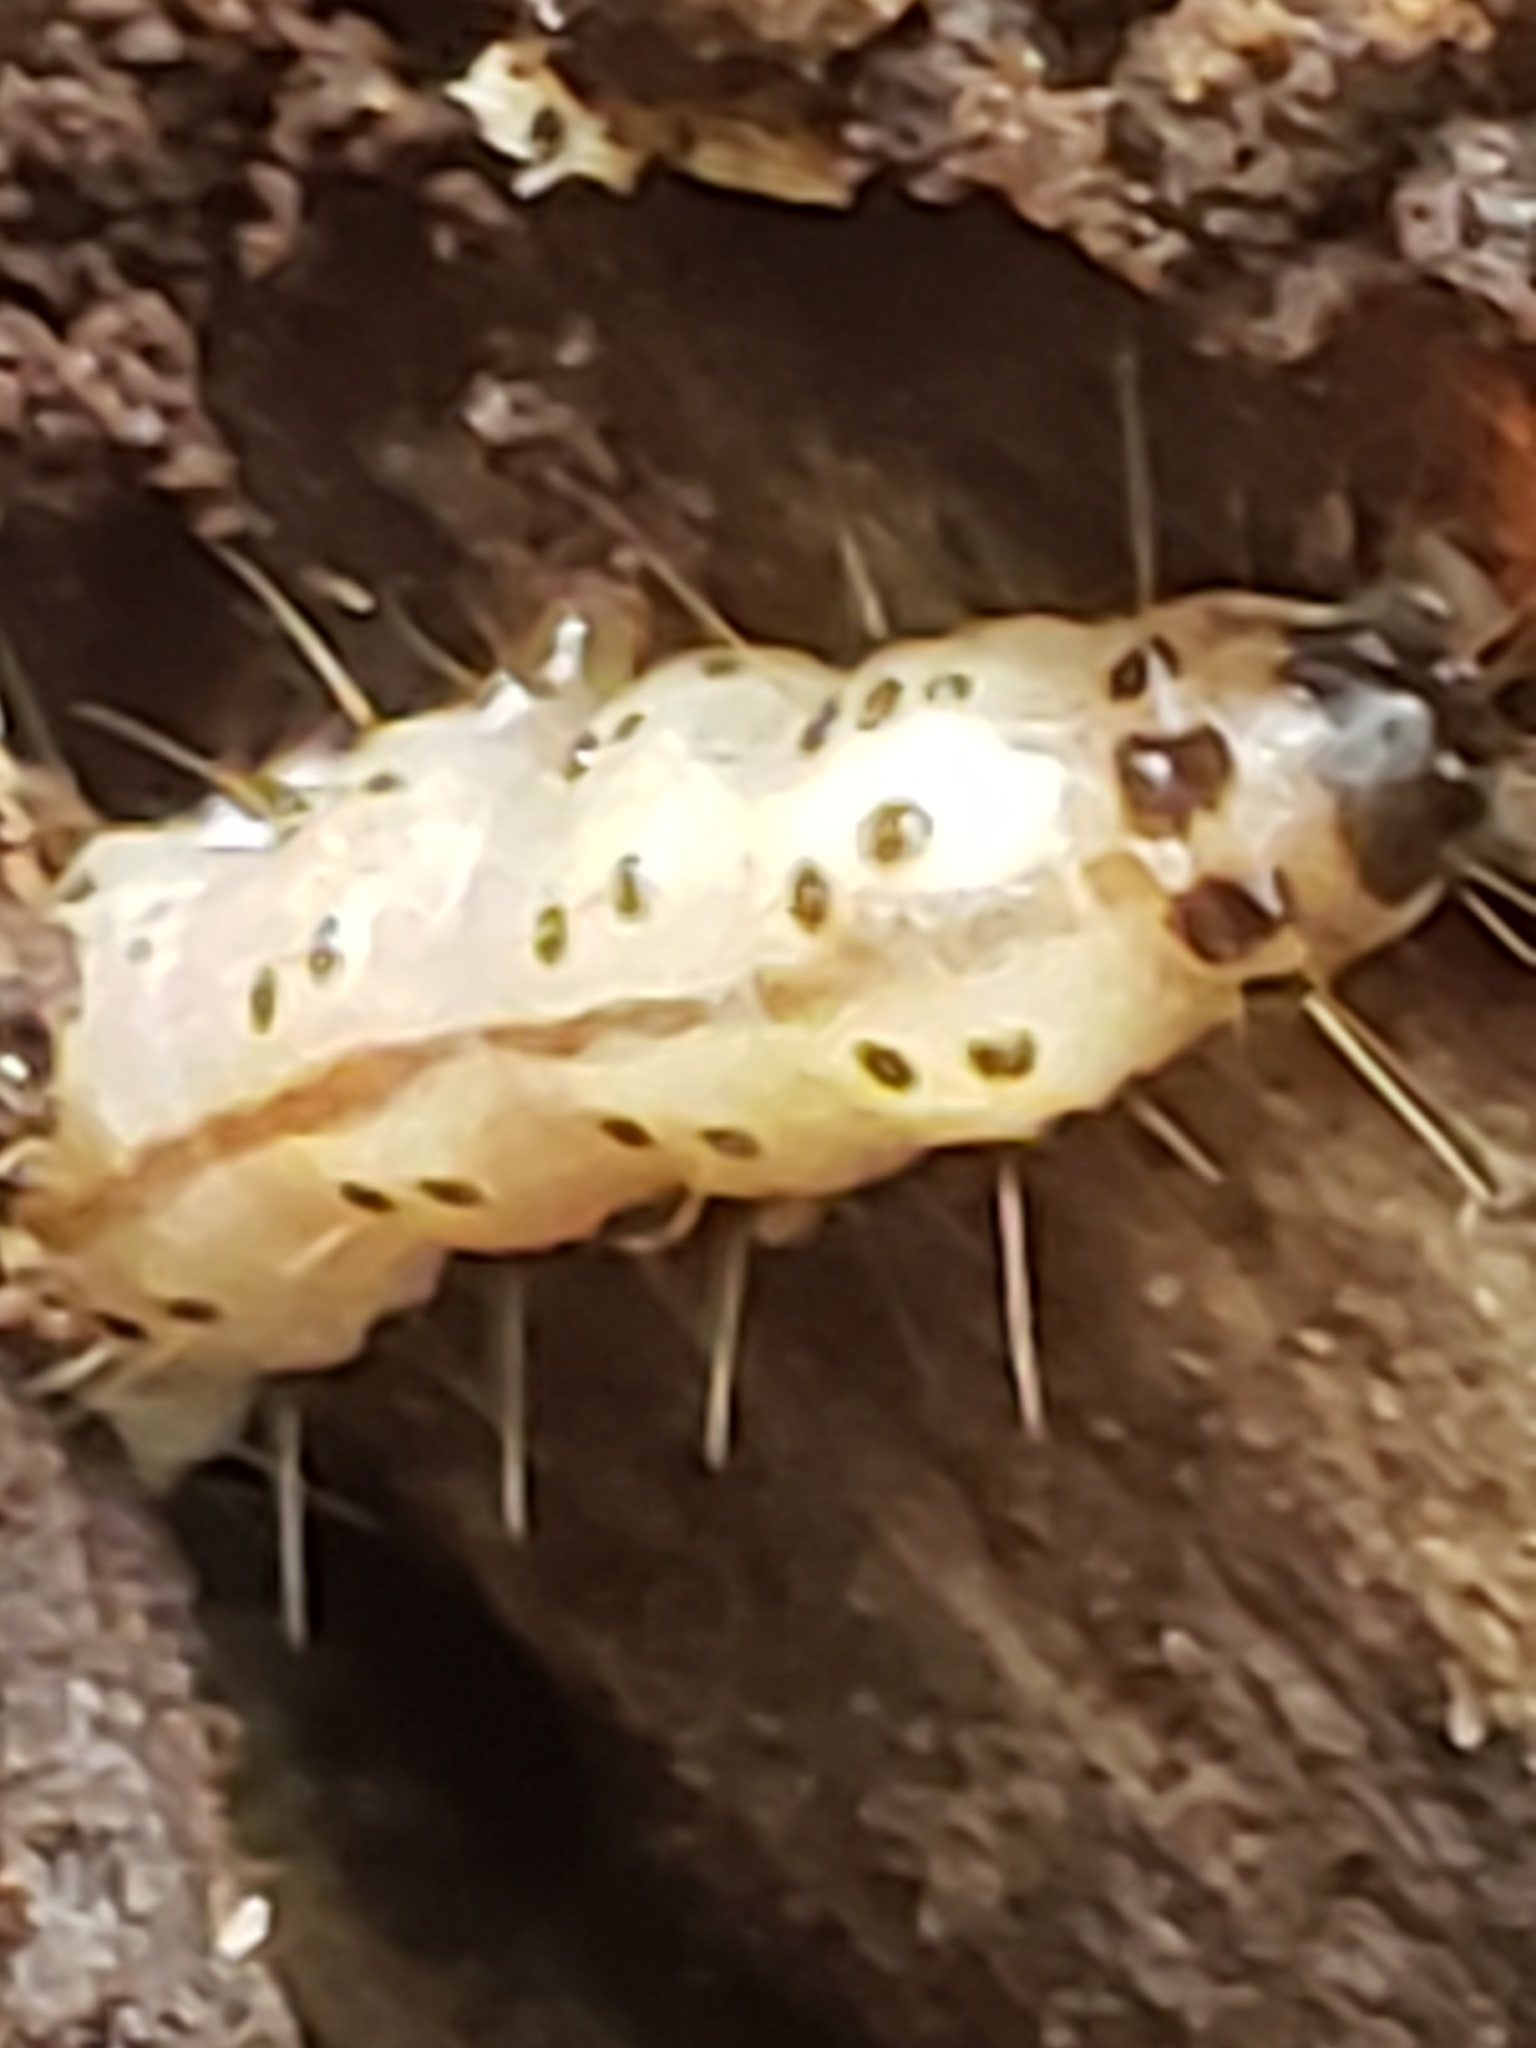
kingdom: Animalia
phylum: Arthropoda
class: Insecta
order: Lepidoptera
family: Erebidae
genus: Scolecocampa
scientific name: Scolecocampa liburna
